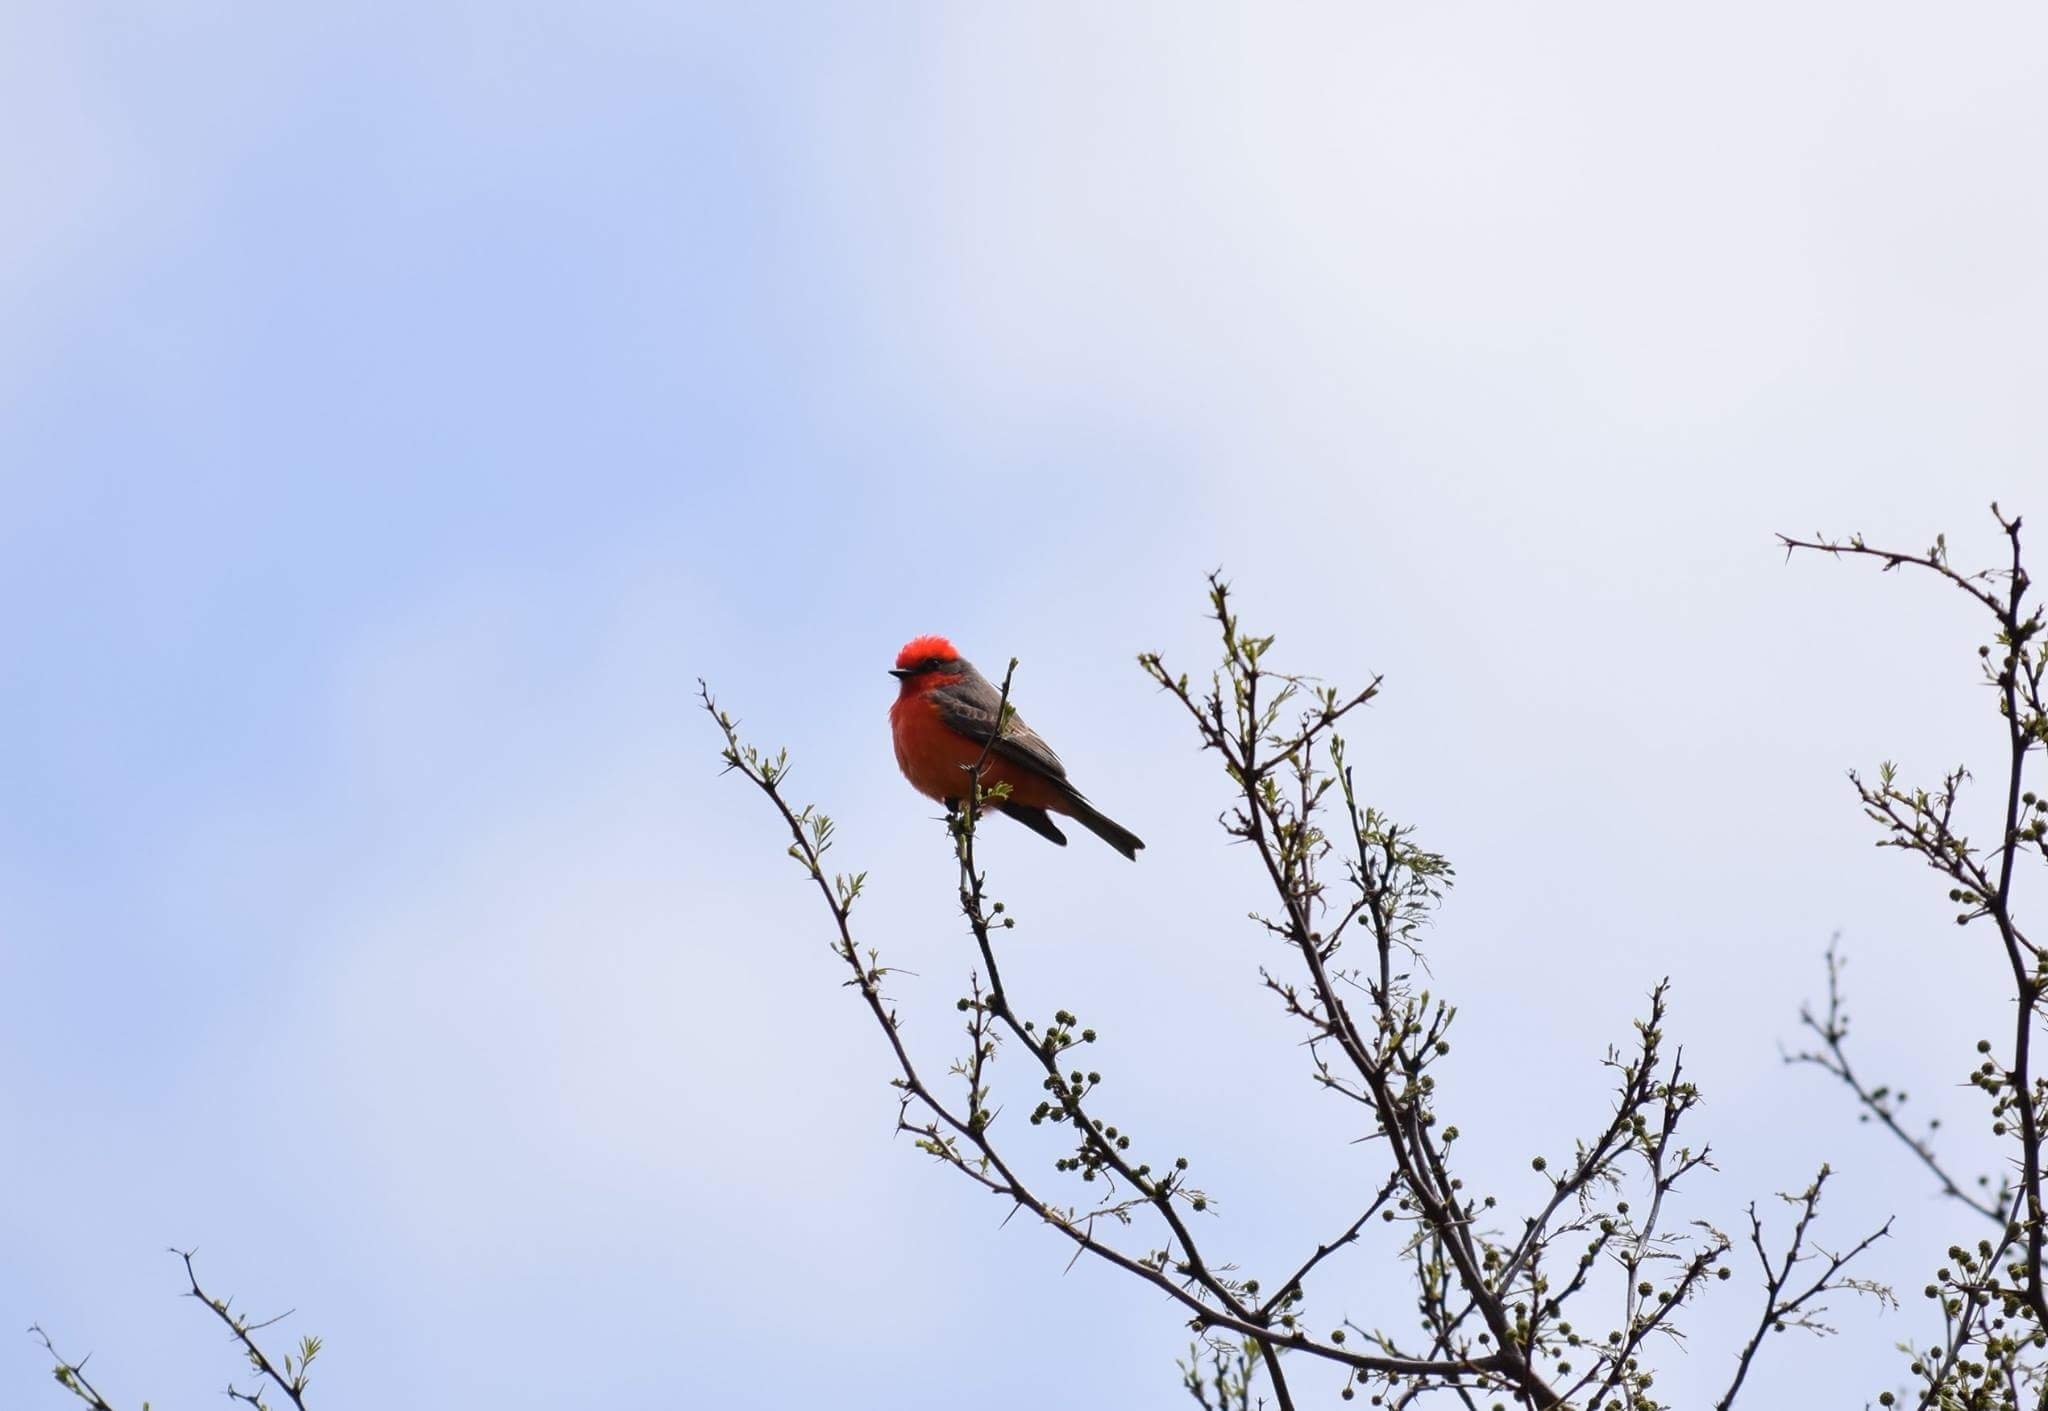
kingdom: Animalia
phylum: Chordata
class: Aves
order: Passeriformes
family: Tyrannidae
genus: Pyrocephalus
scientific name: Pyrocephalus rubinus
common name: Vermilion flycatcher
